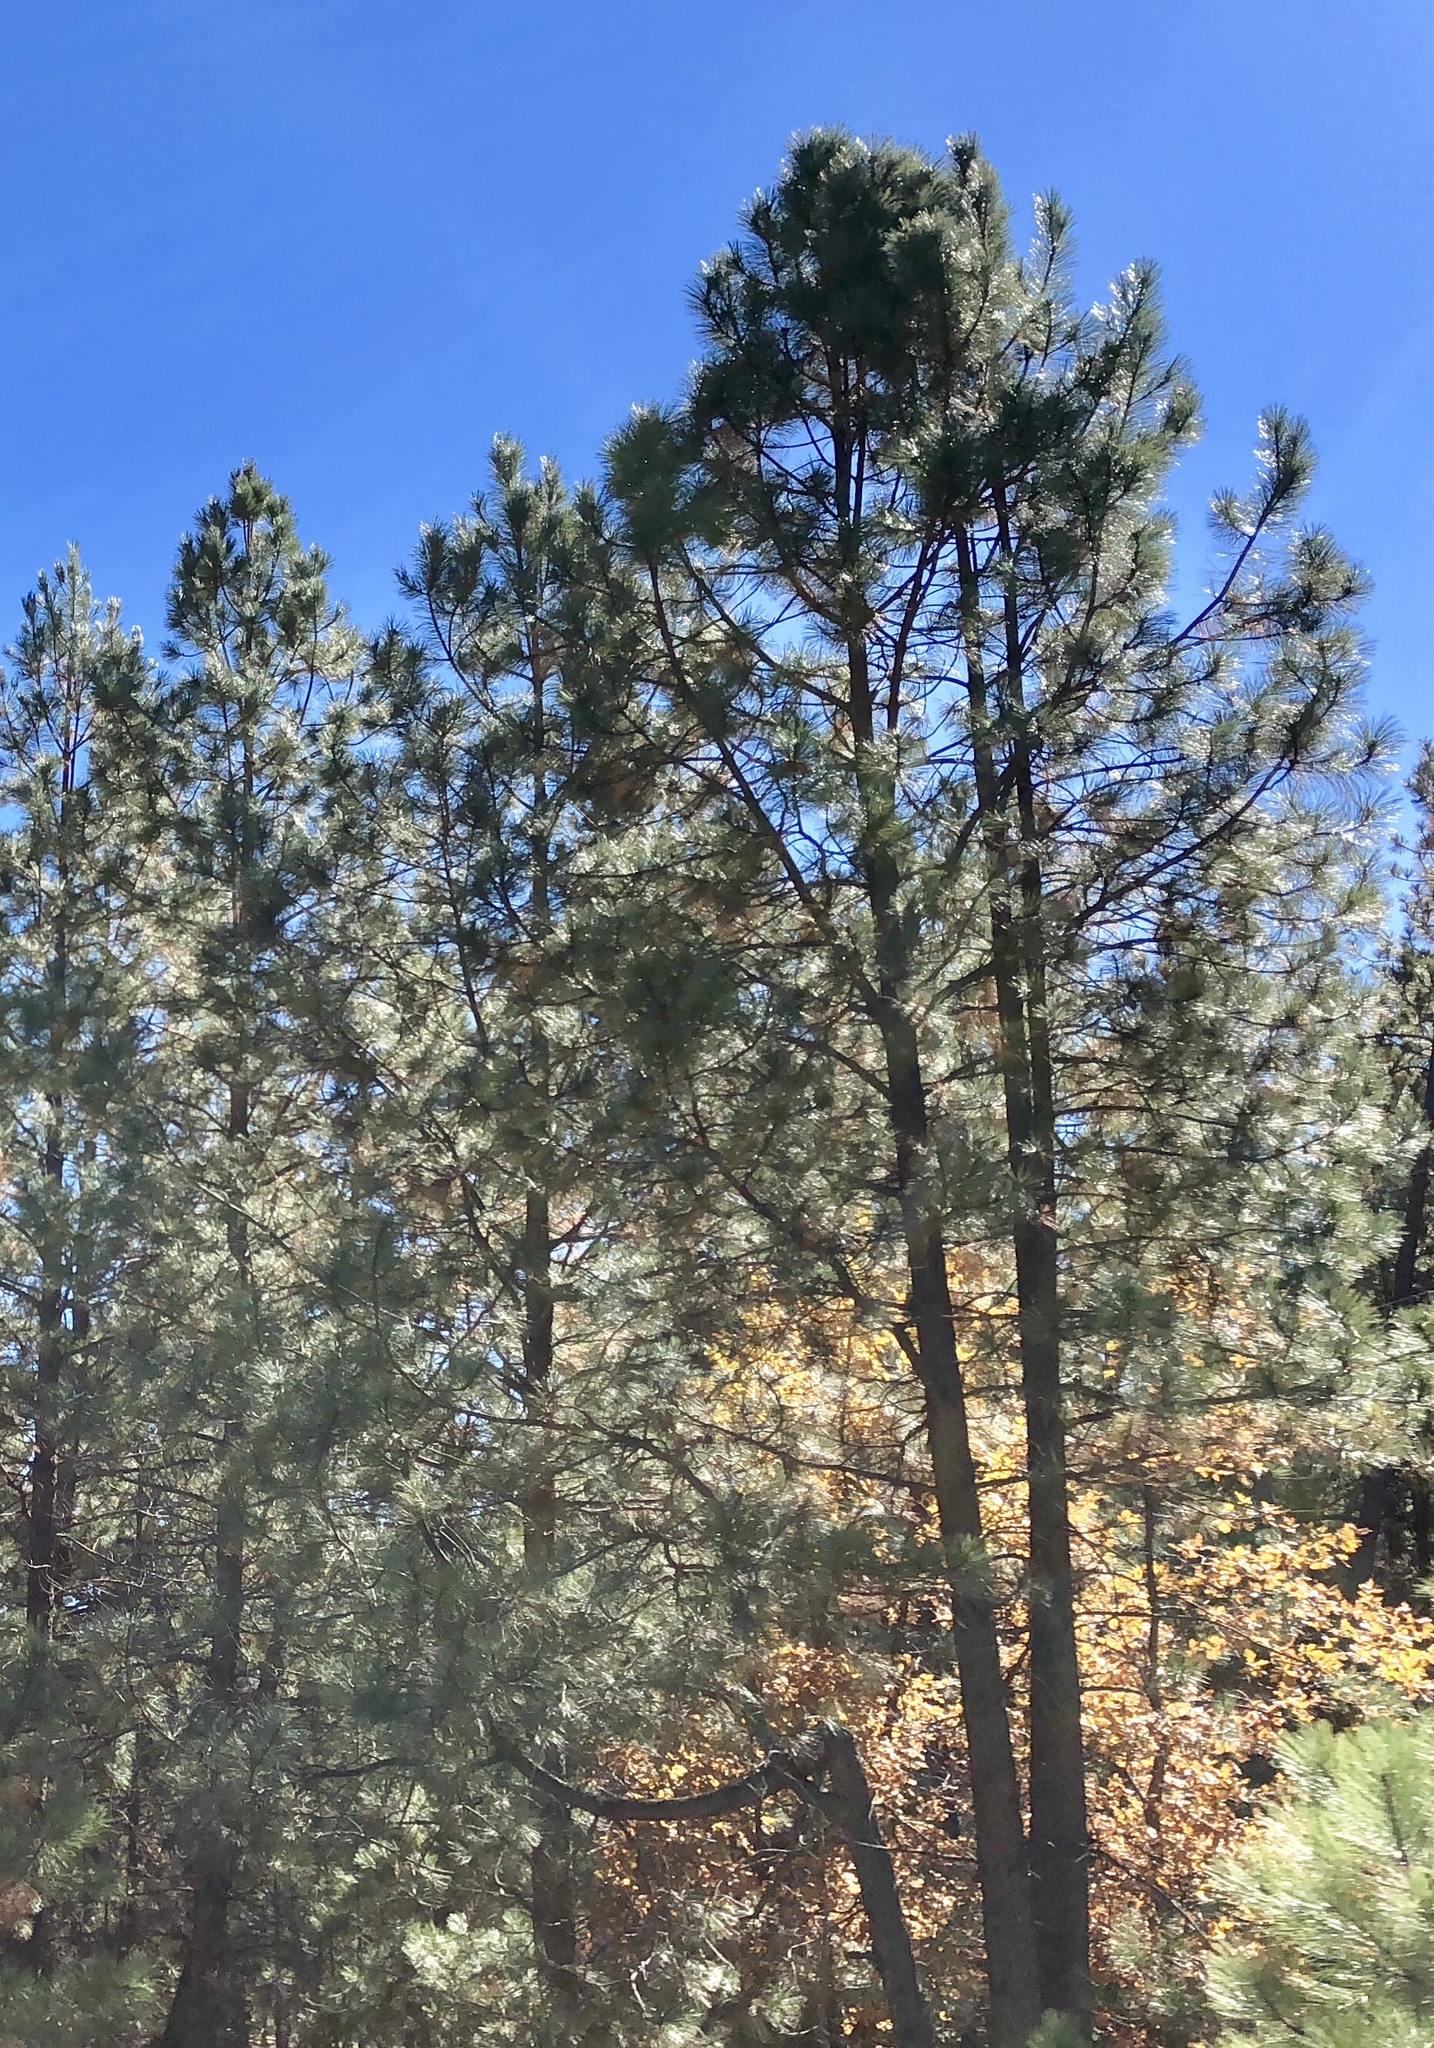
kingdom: Plantae
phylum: Tracheophyta
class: Pinopsida
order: Pinales
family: Pinaceae
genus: Pinus
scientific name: Pinus ponderosa
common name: Western yellow-pine
